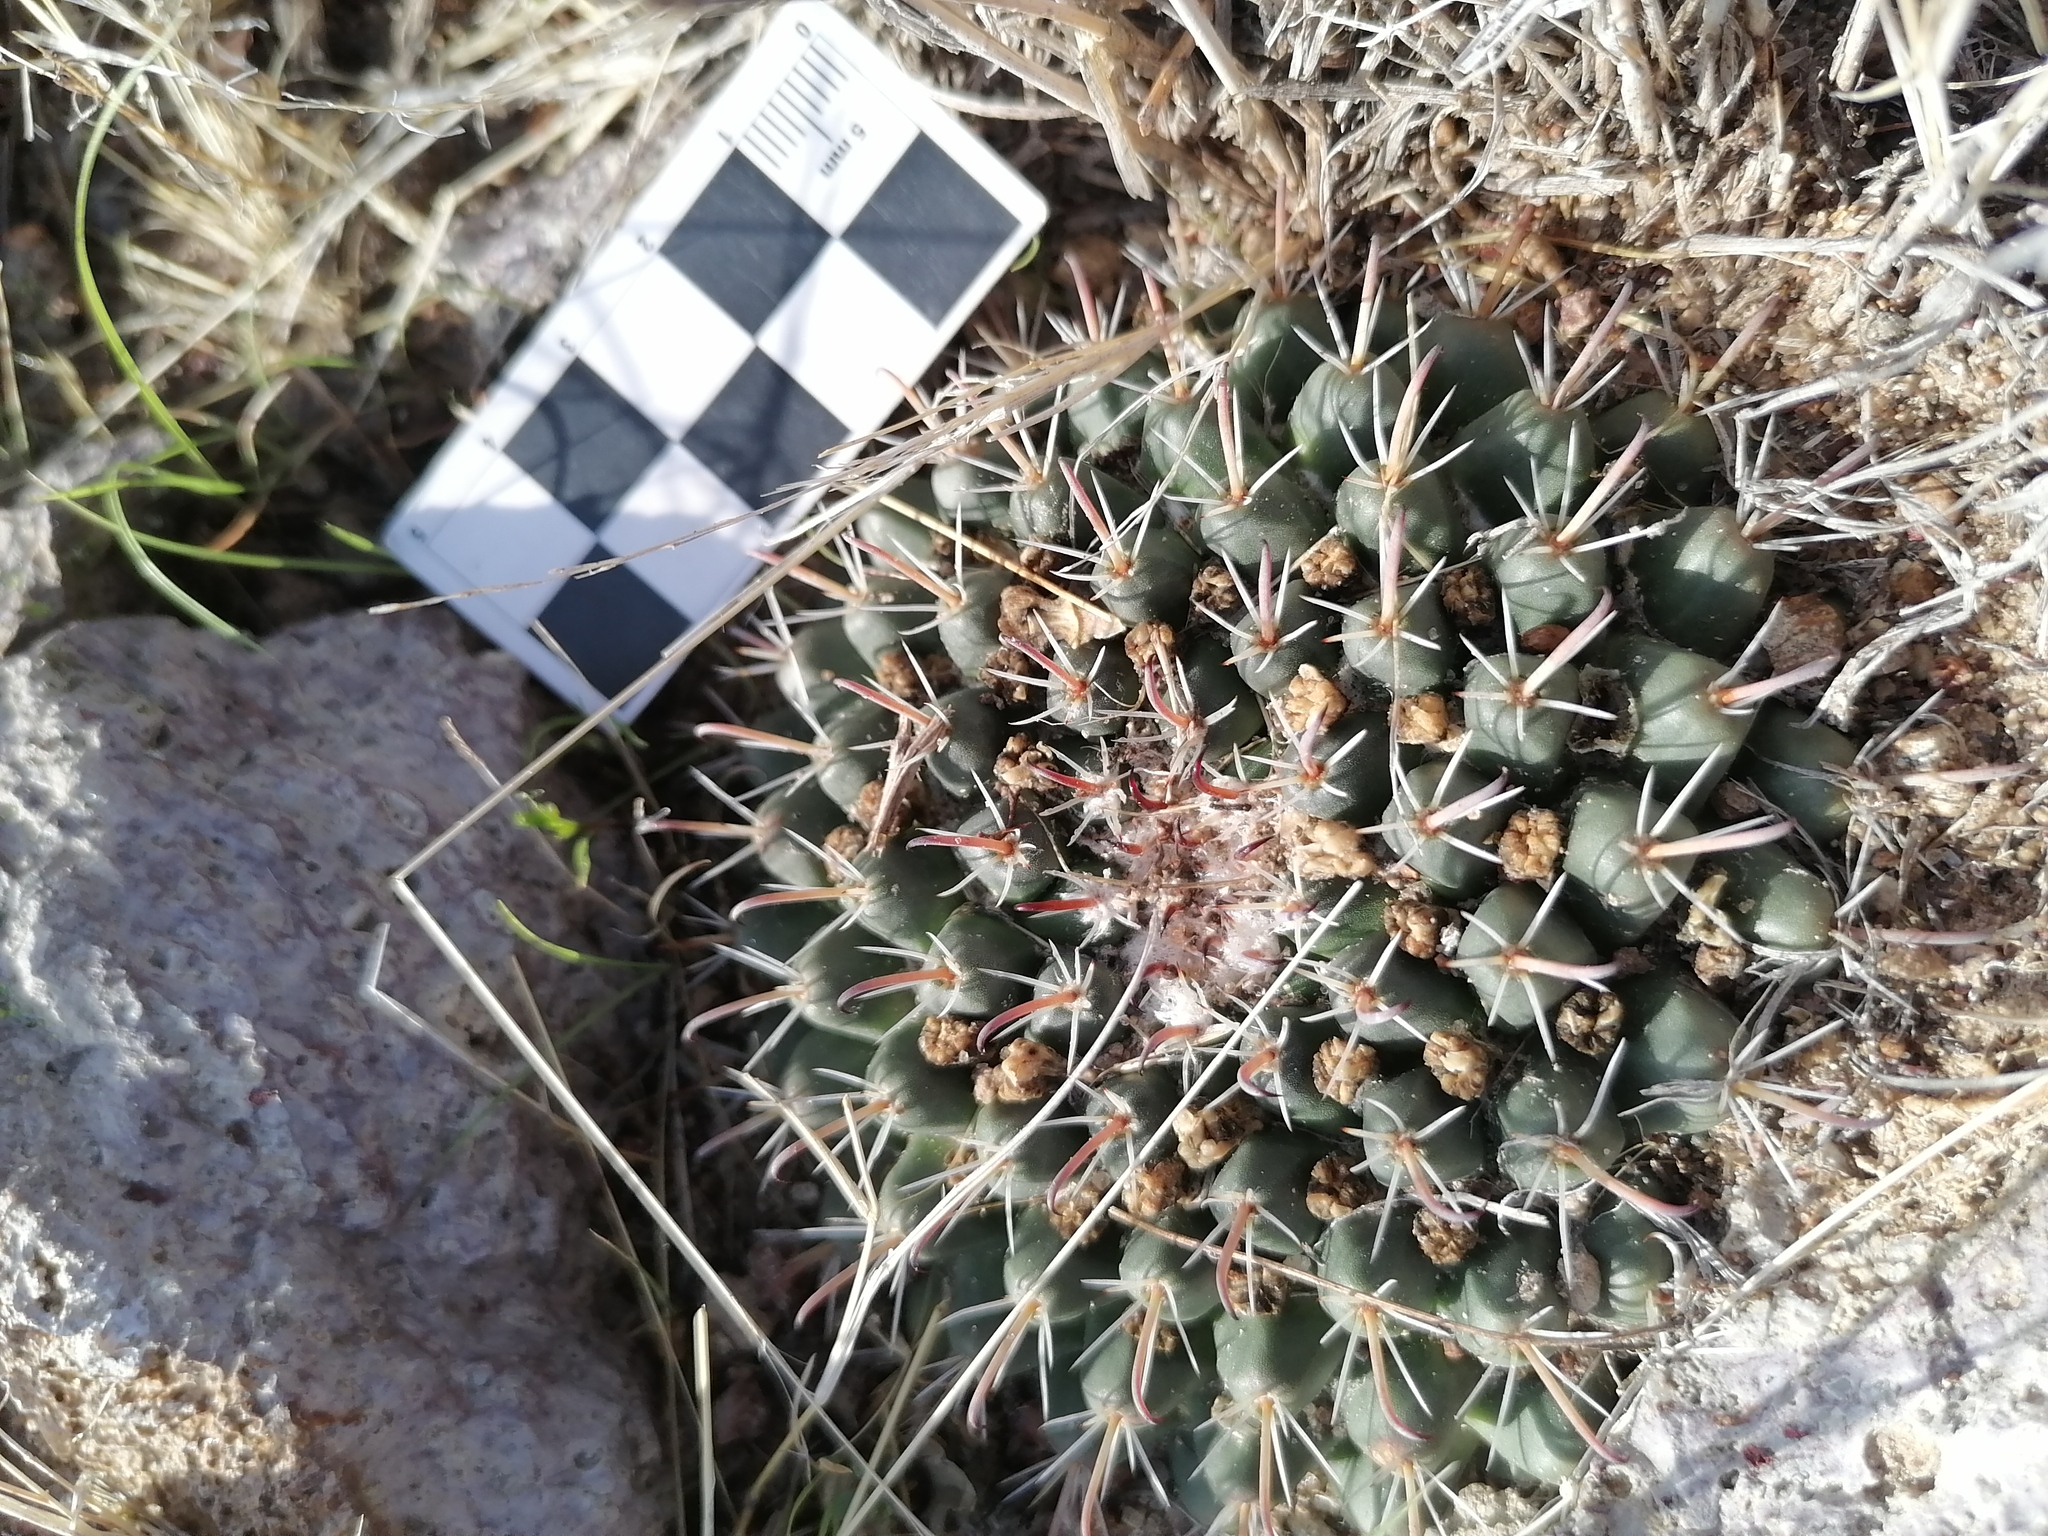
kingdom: Plantae
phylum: Tracheophyta
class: Magnoliopsida
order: Caryophyllales
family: Cactaceae
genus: Mammillaria
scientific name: Mammillaria uncinata
